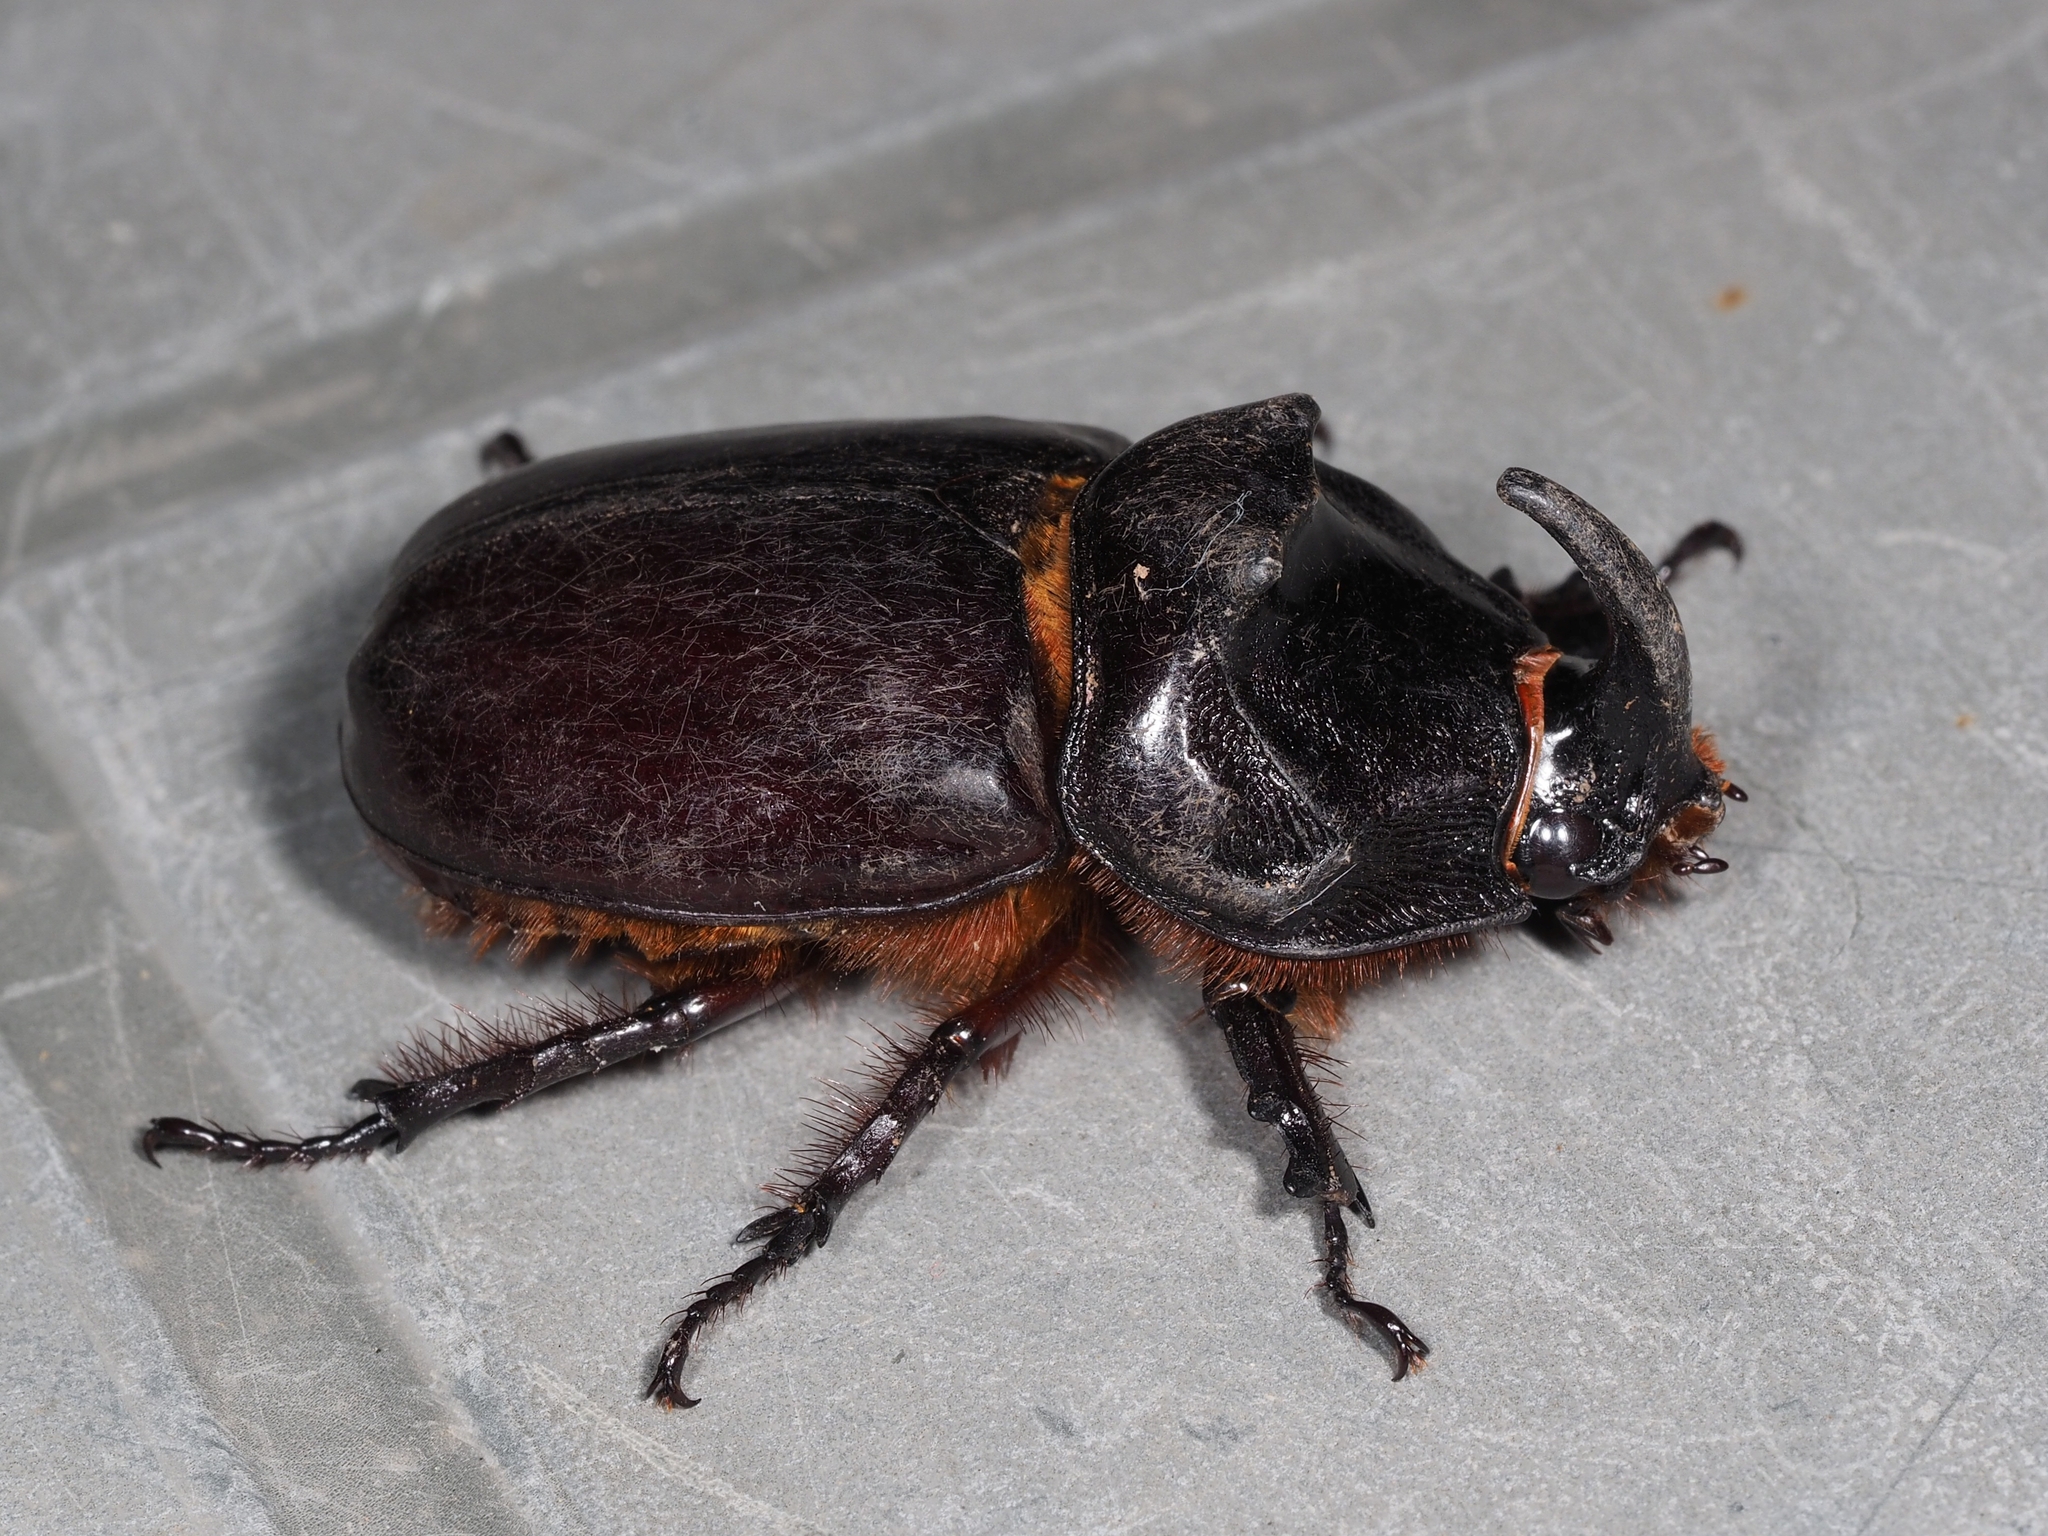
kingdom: Animalia
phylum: Arthropoda
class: Insecta
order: Coleoptera
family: Scarabaeidae
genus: Oryctes
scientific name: Oryctes nasicornis
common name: European rhinoceros beetle
